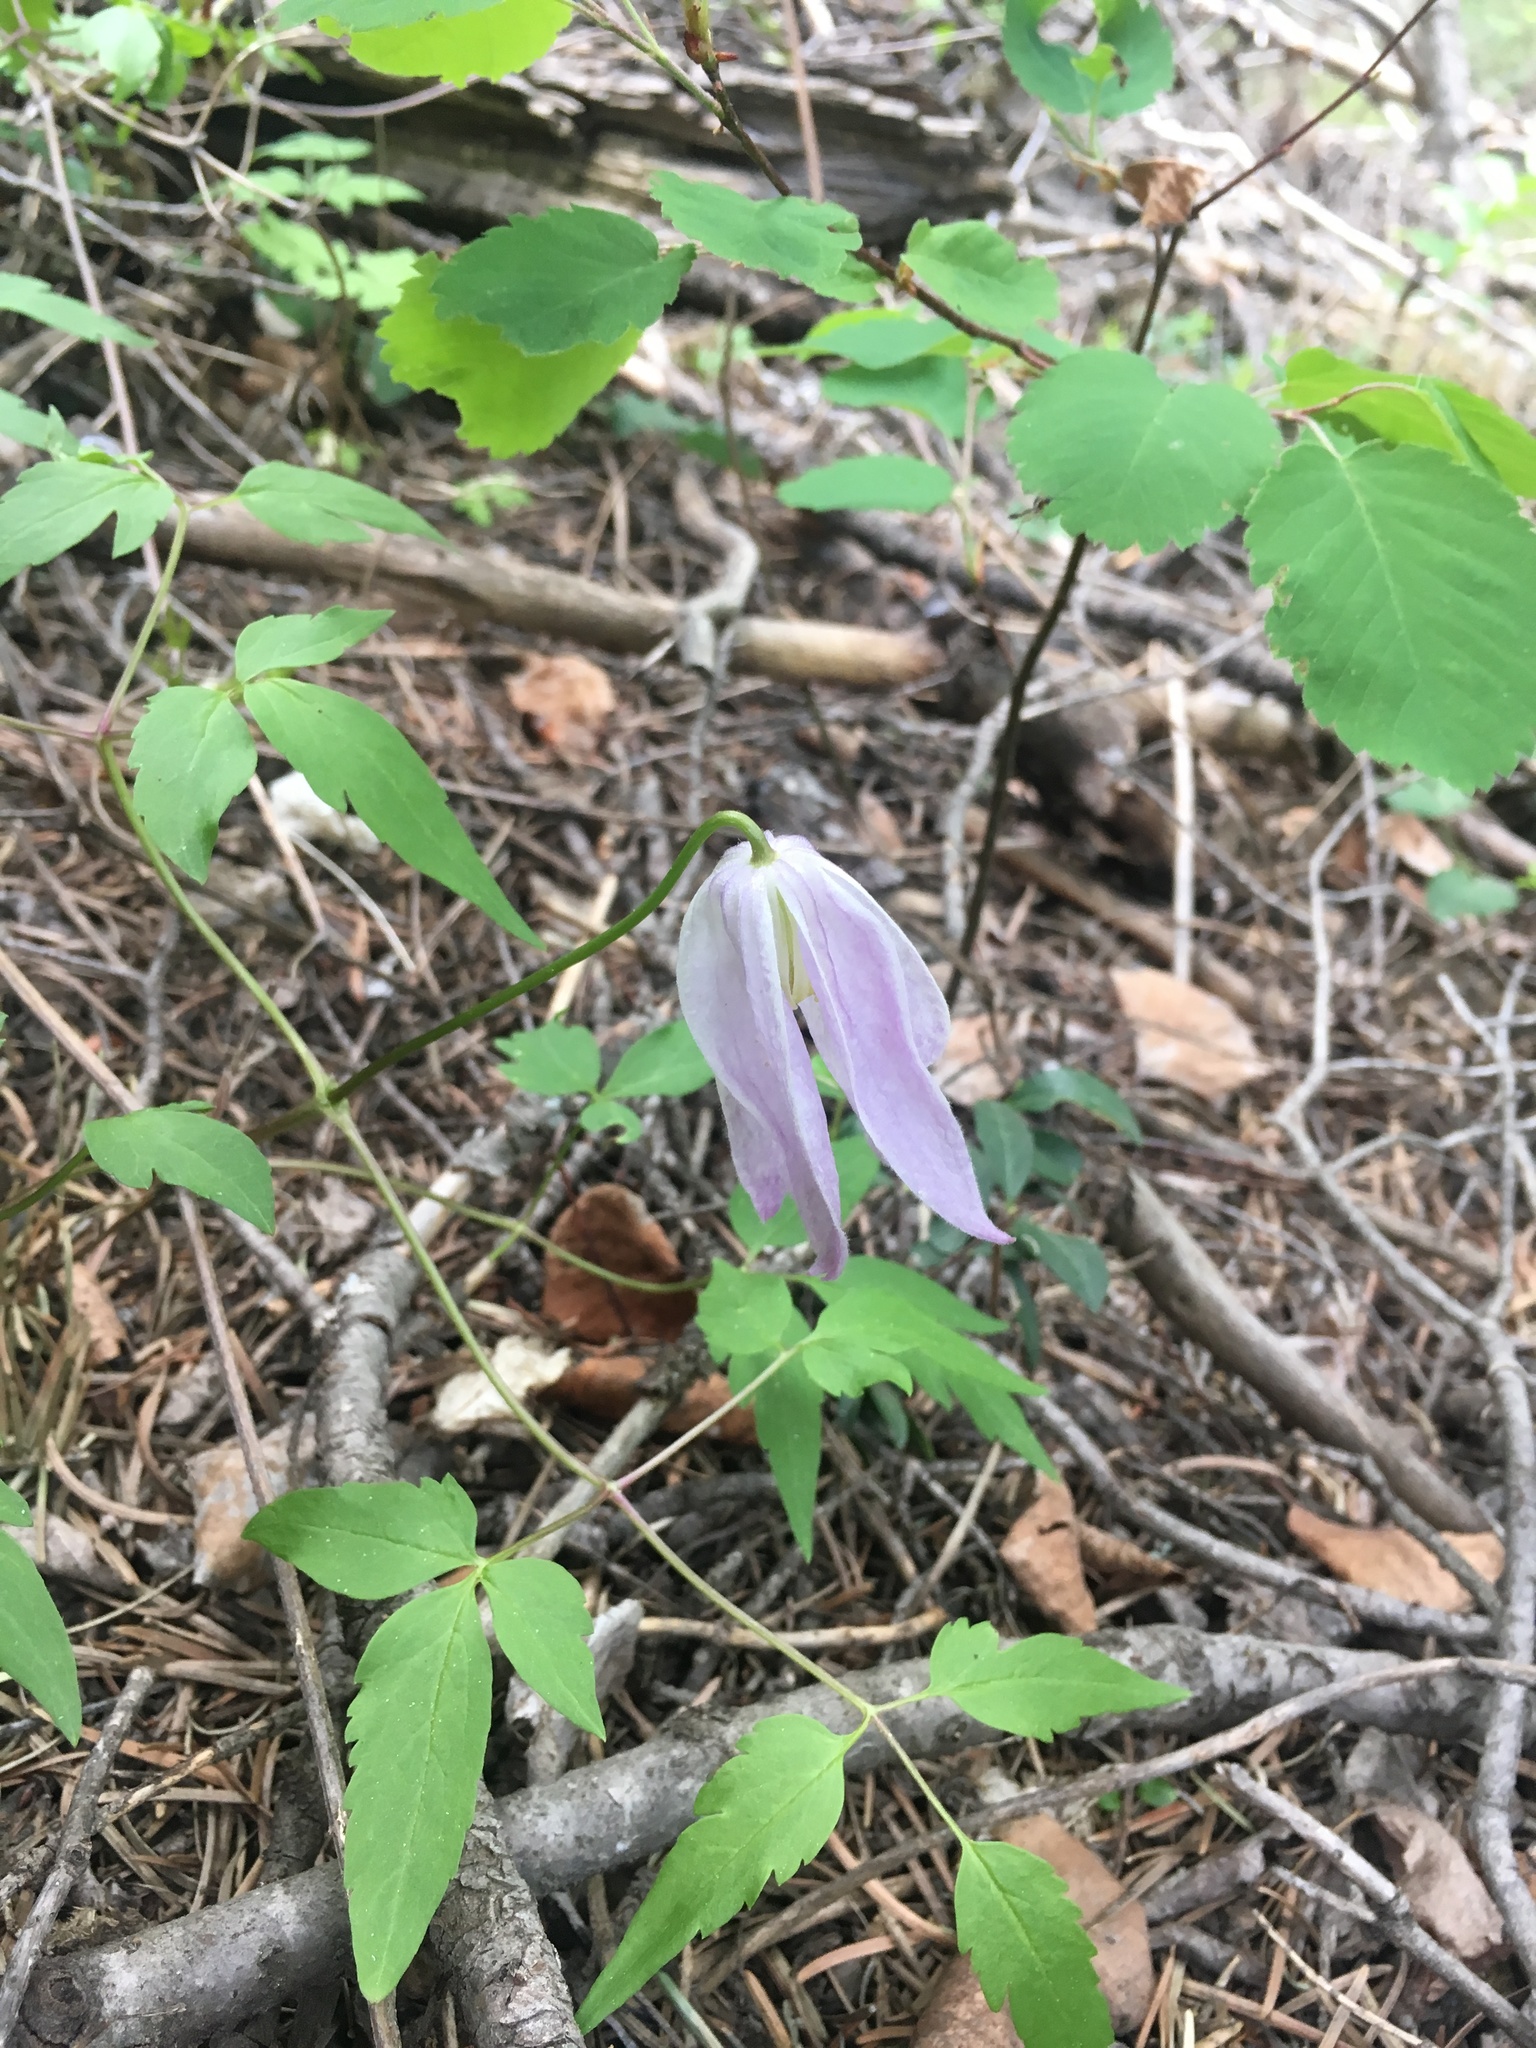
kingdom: Plantae
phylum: Tracheophyta
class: Magnoliopsida
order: Ranunculales
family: Ranunculaceae
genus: Clematis
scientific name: Clematis columbiana
